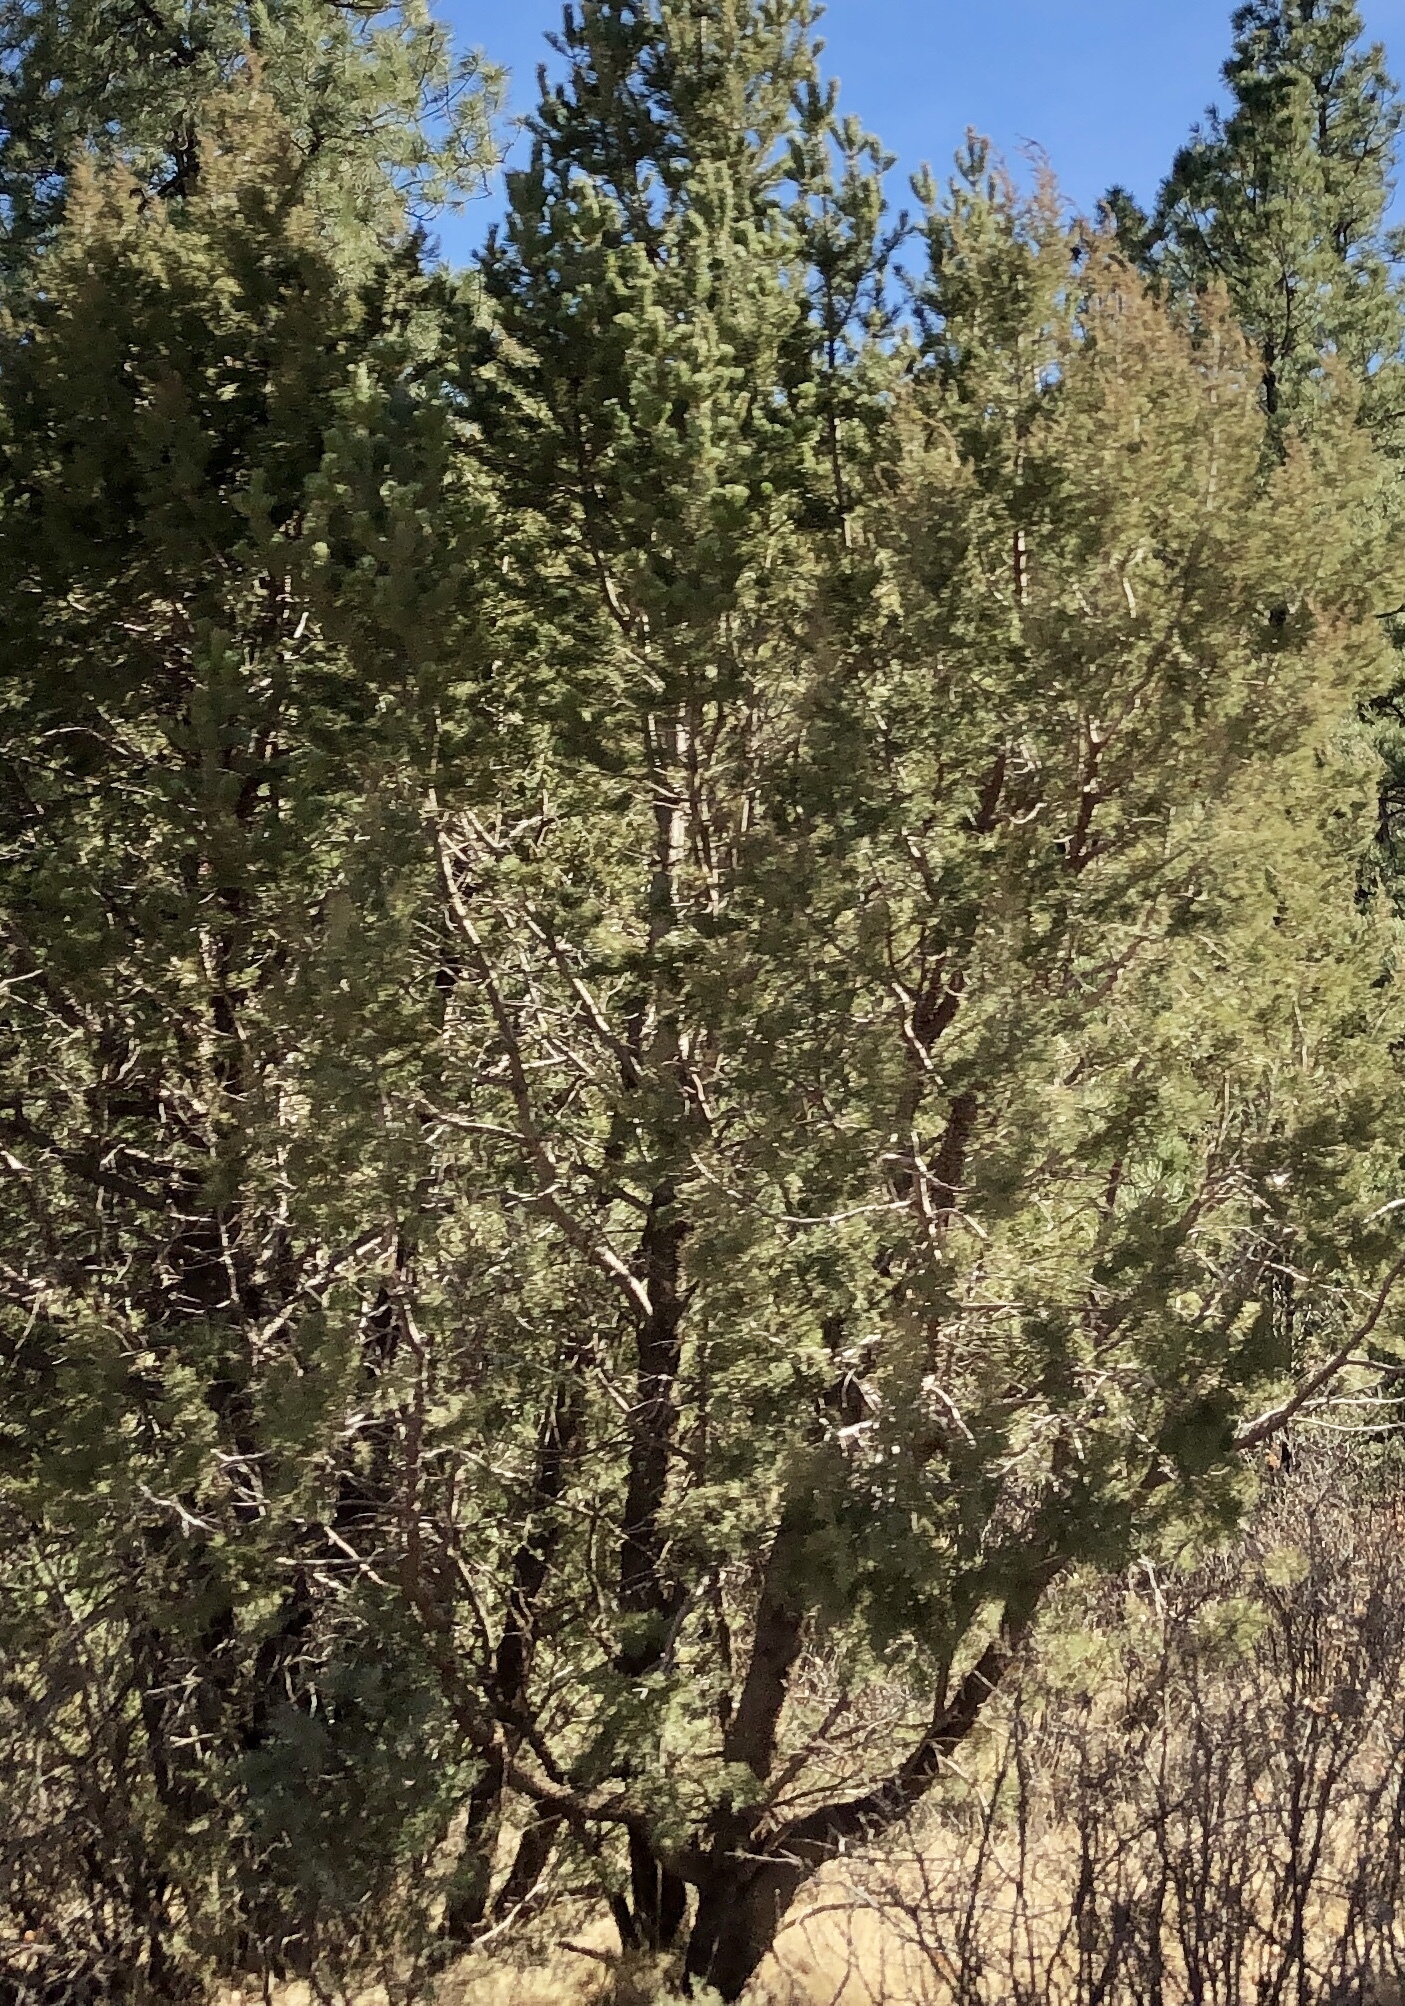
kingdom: Plantae
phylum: Tracheophyta
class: Pinopsida
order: Pinales
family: Cupressaceae
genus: Juniperus
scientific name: Juniperus deppeana
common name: Alligator juniper
